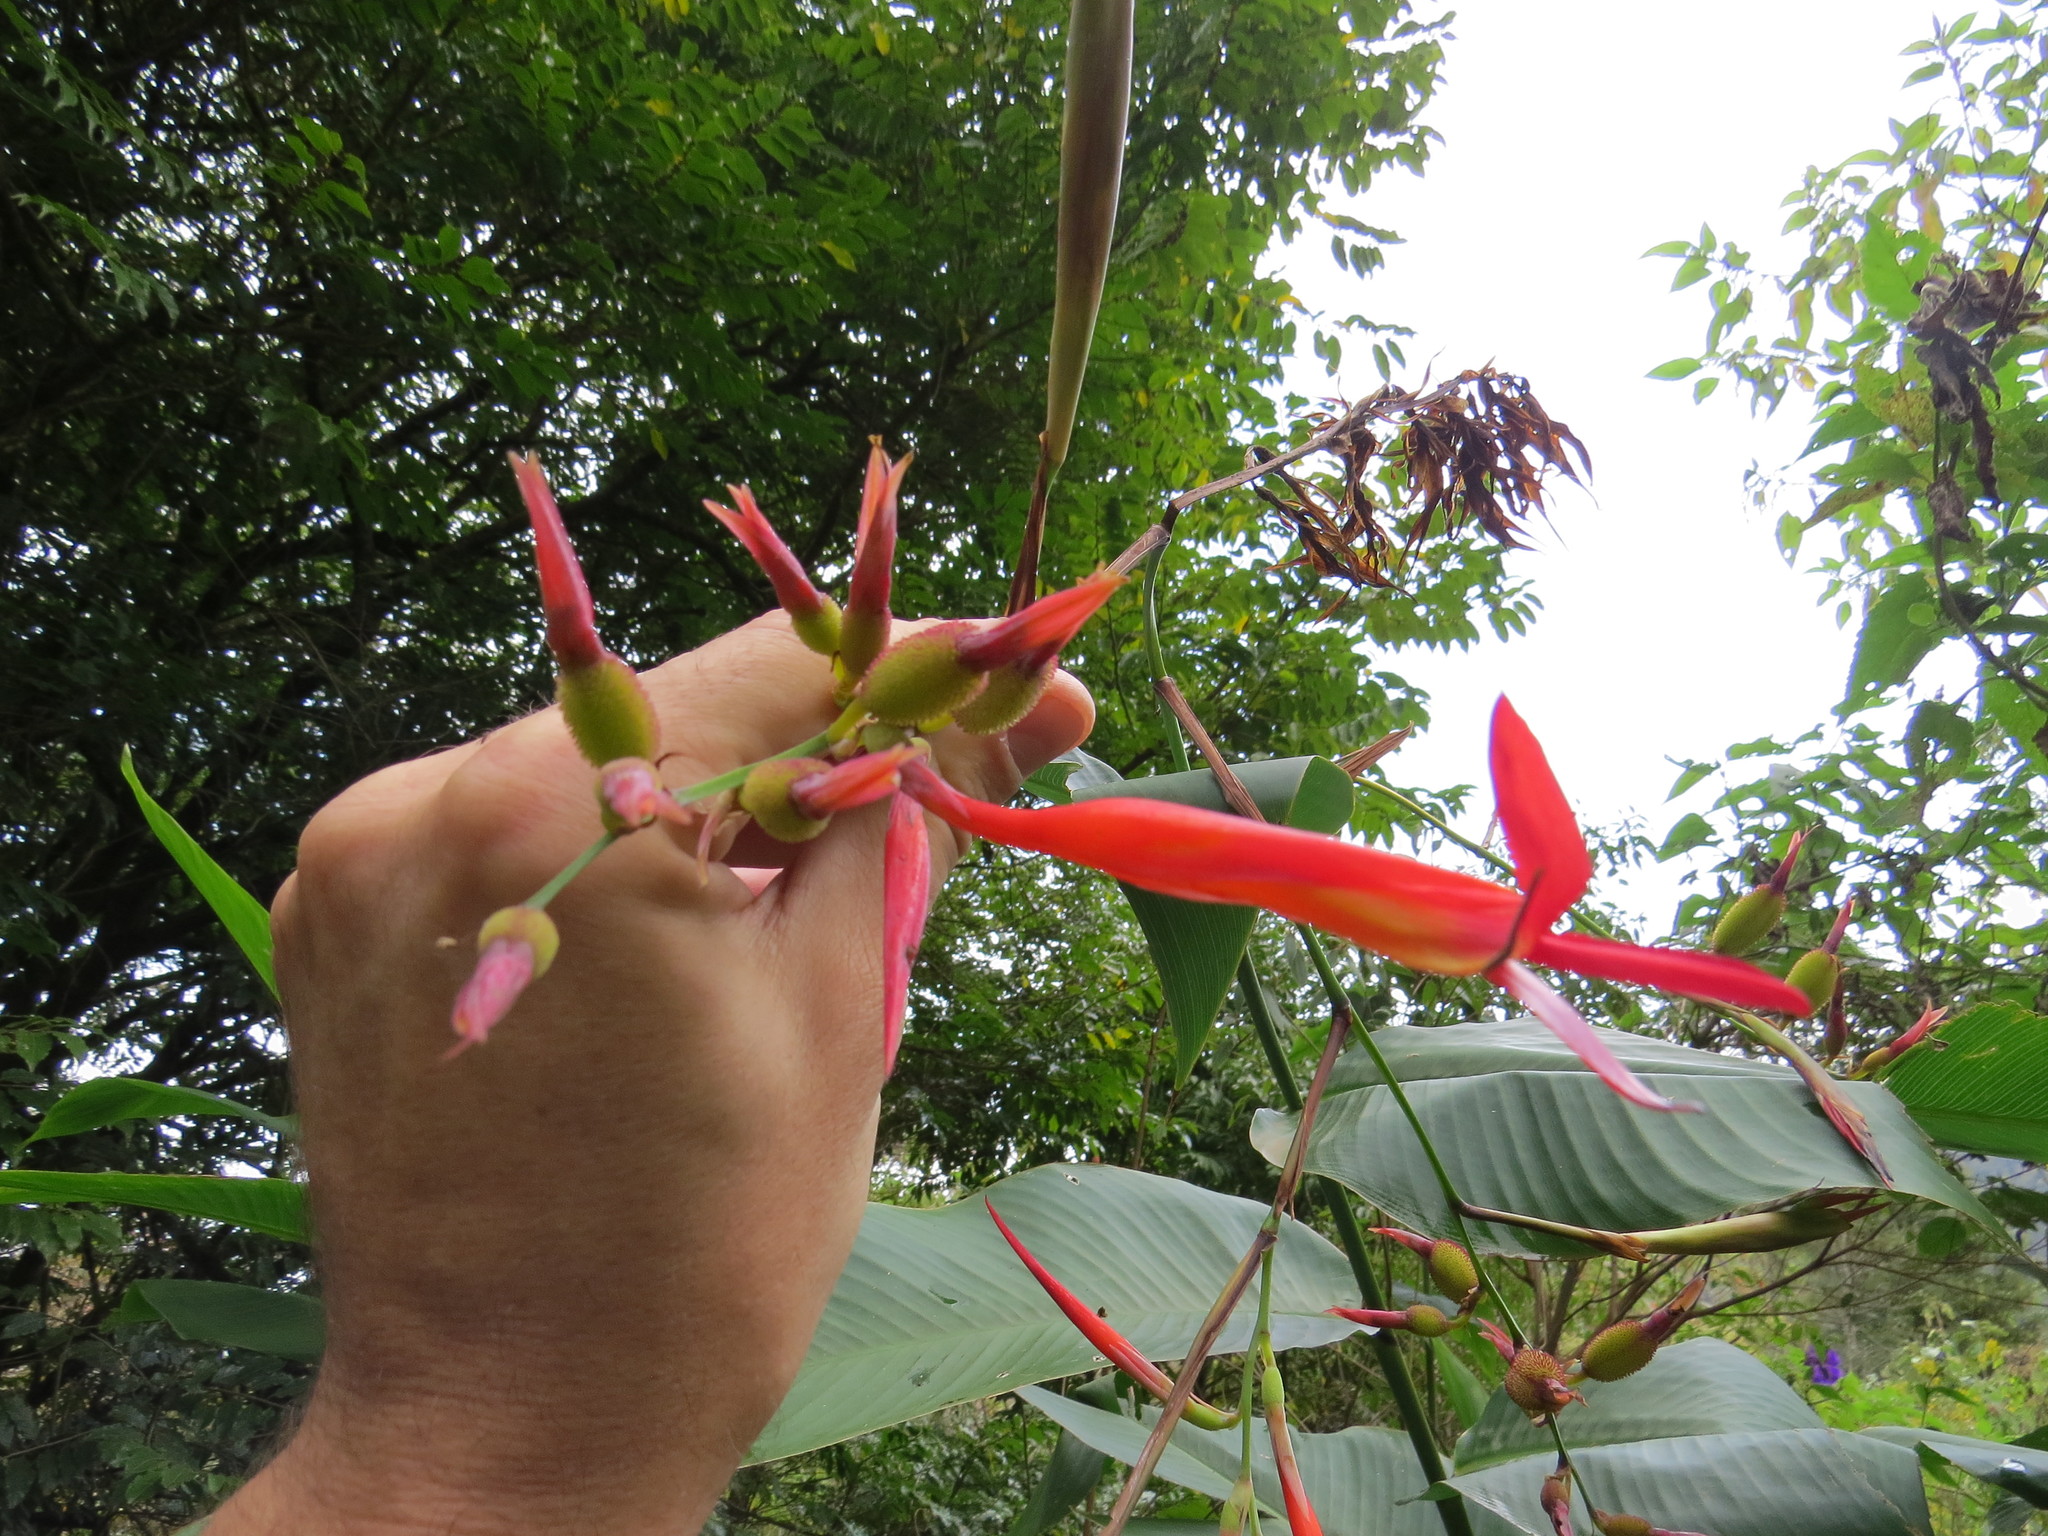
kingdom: Plantae
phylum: Tracheophyta
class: Liliopsida
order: Zingiberales
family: Cannaceae
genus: Canna
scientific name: Canna paniculata
